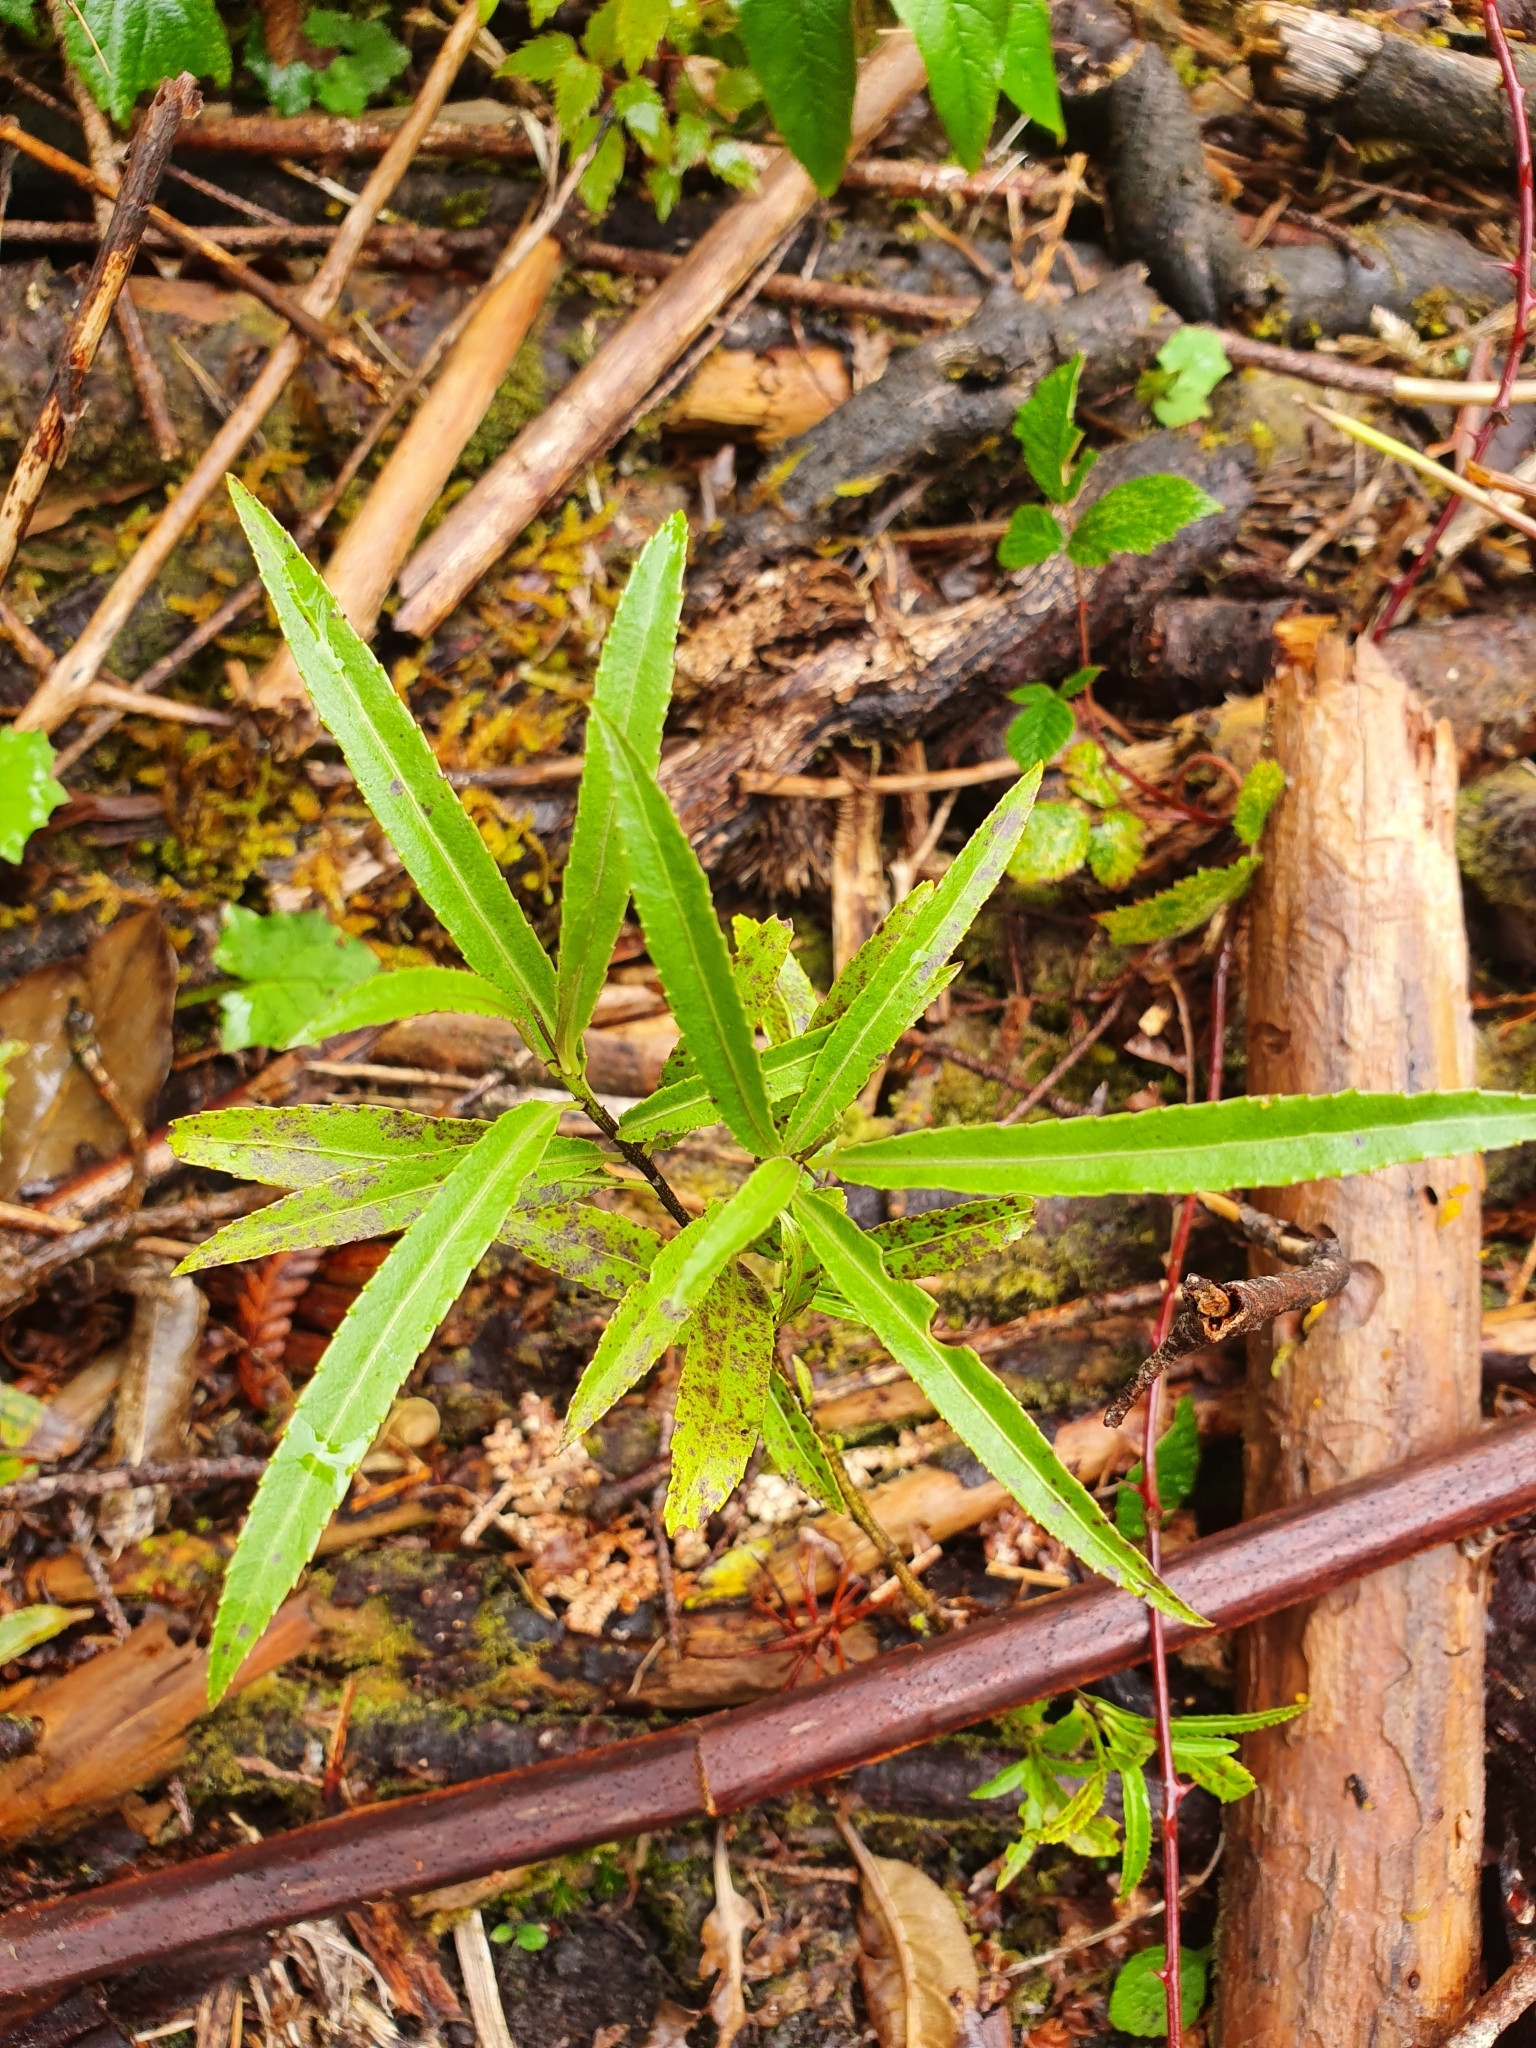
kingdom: Plantae
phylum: Tracheophyta
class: Magnoliopsida
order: Malpighiales
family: Violaceae
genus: Melicytus
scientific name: Melicytus lanceolatus
